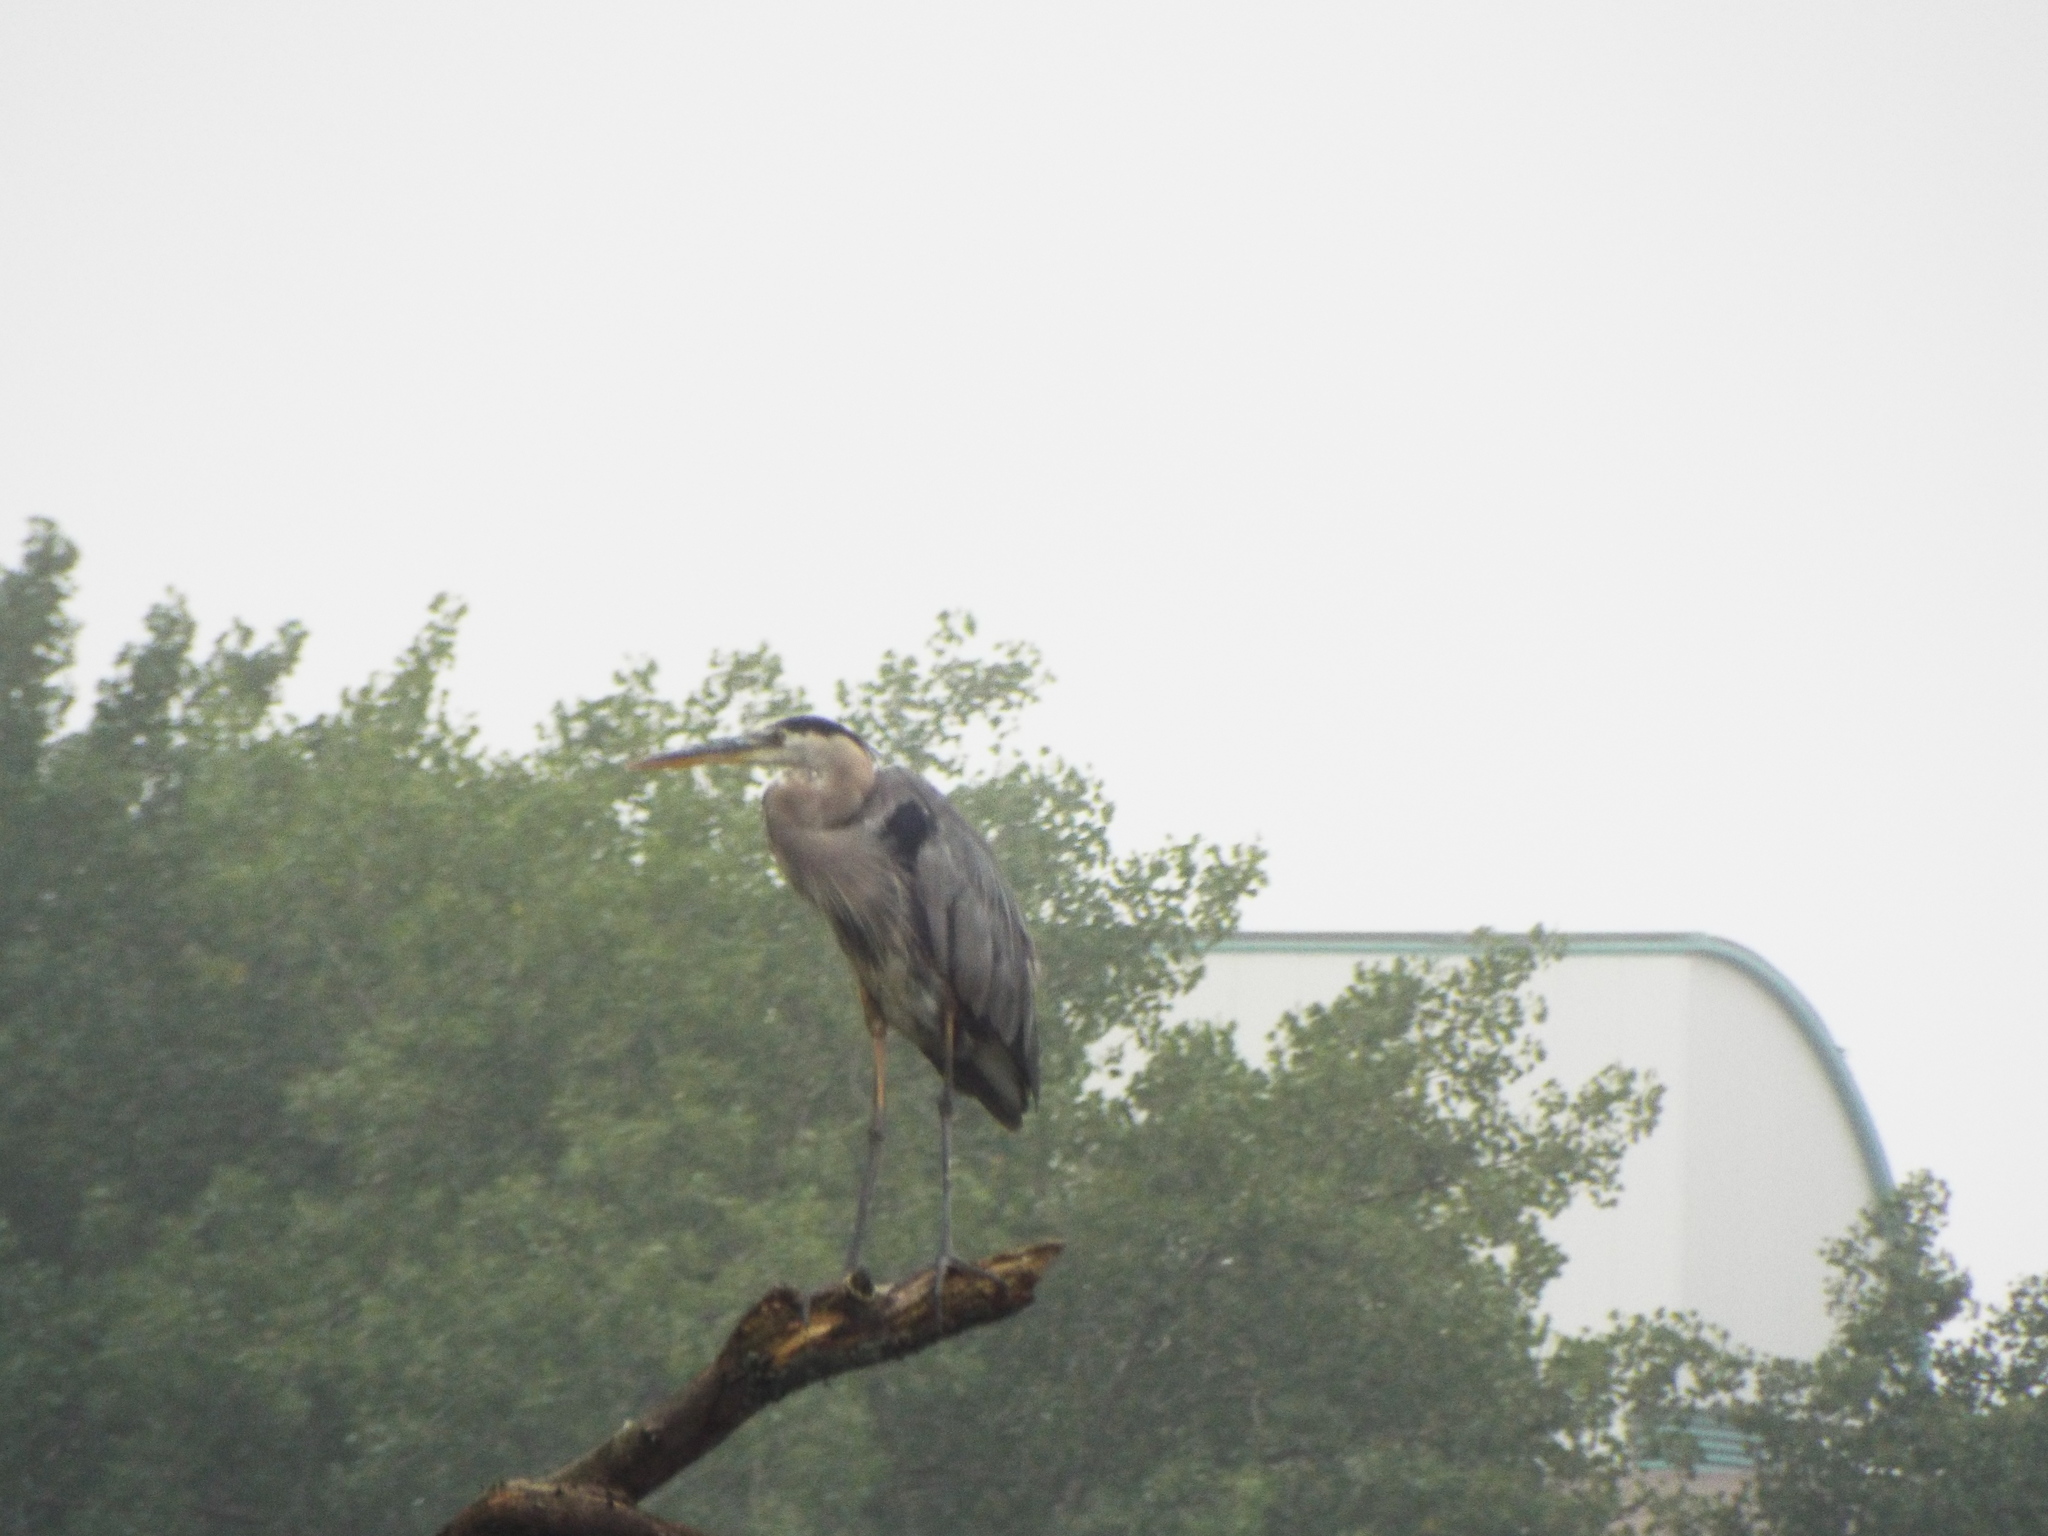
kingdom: Animalia
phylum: Chordata
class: Aves
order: Pelecaniformes
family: Ardeidae
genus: Ardea
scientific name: Ardea herodias
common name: Great blue heron
